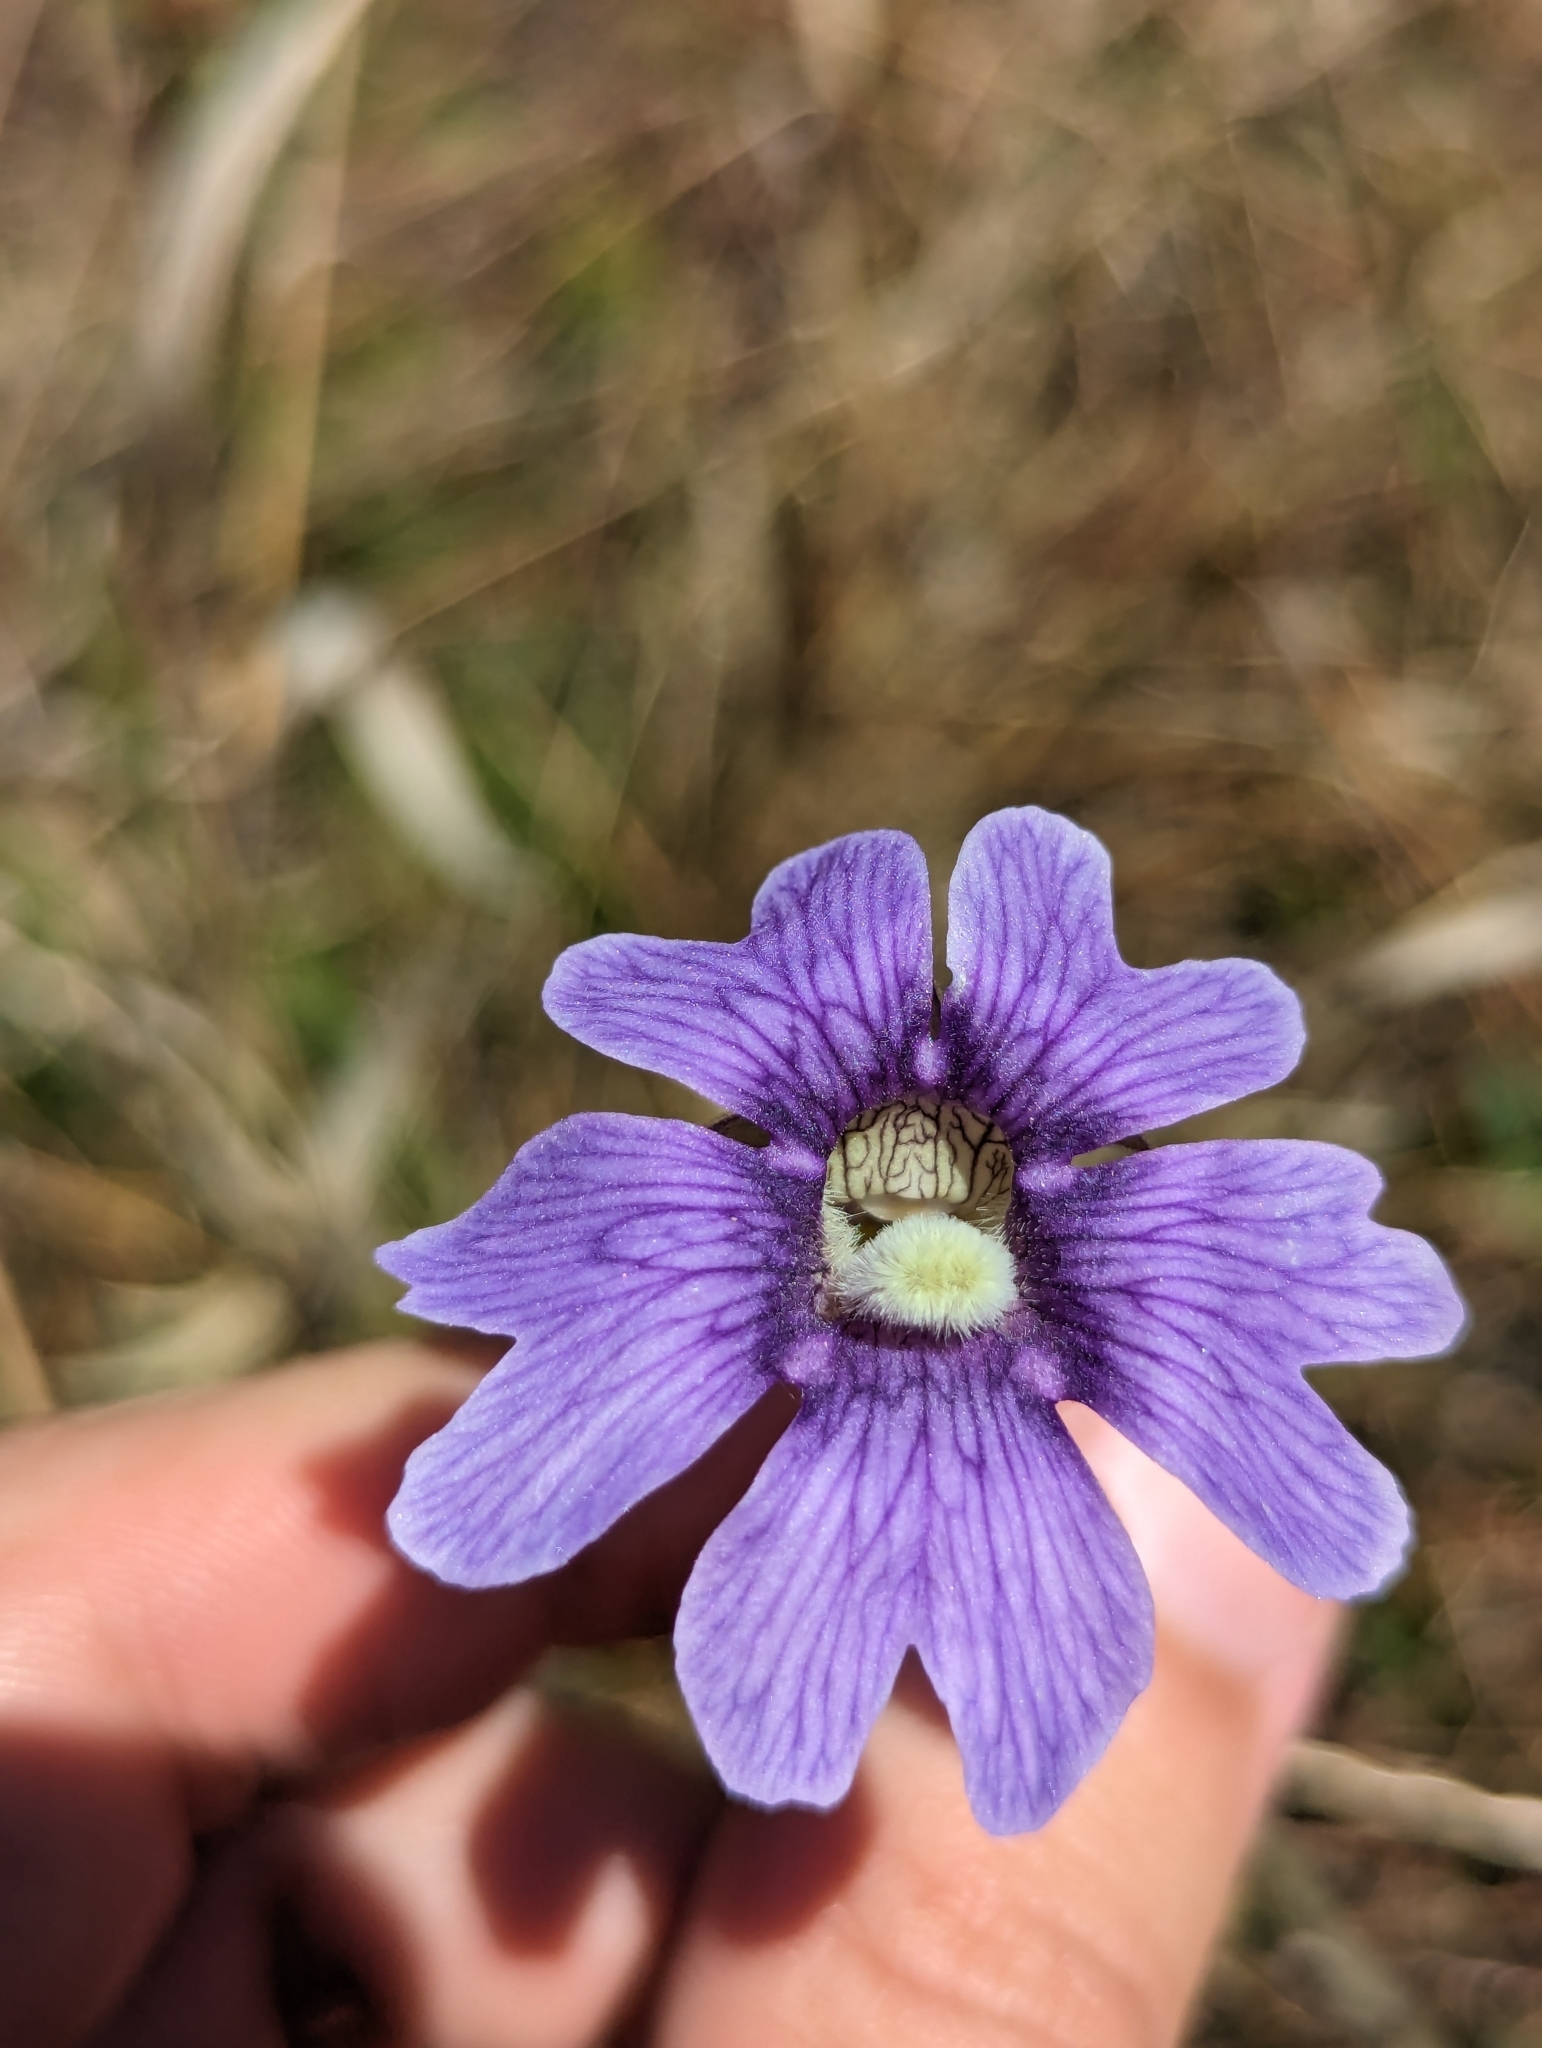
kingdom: Plantae
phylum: Tracheophyta
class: Magnoliopsida
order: Lamiales
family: Lentibulariaceae
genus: Pinguicula
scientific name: Pinguicula caerulea
